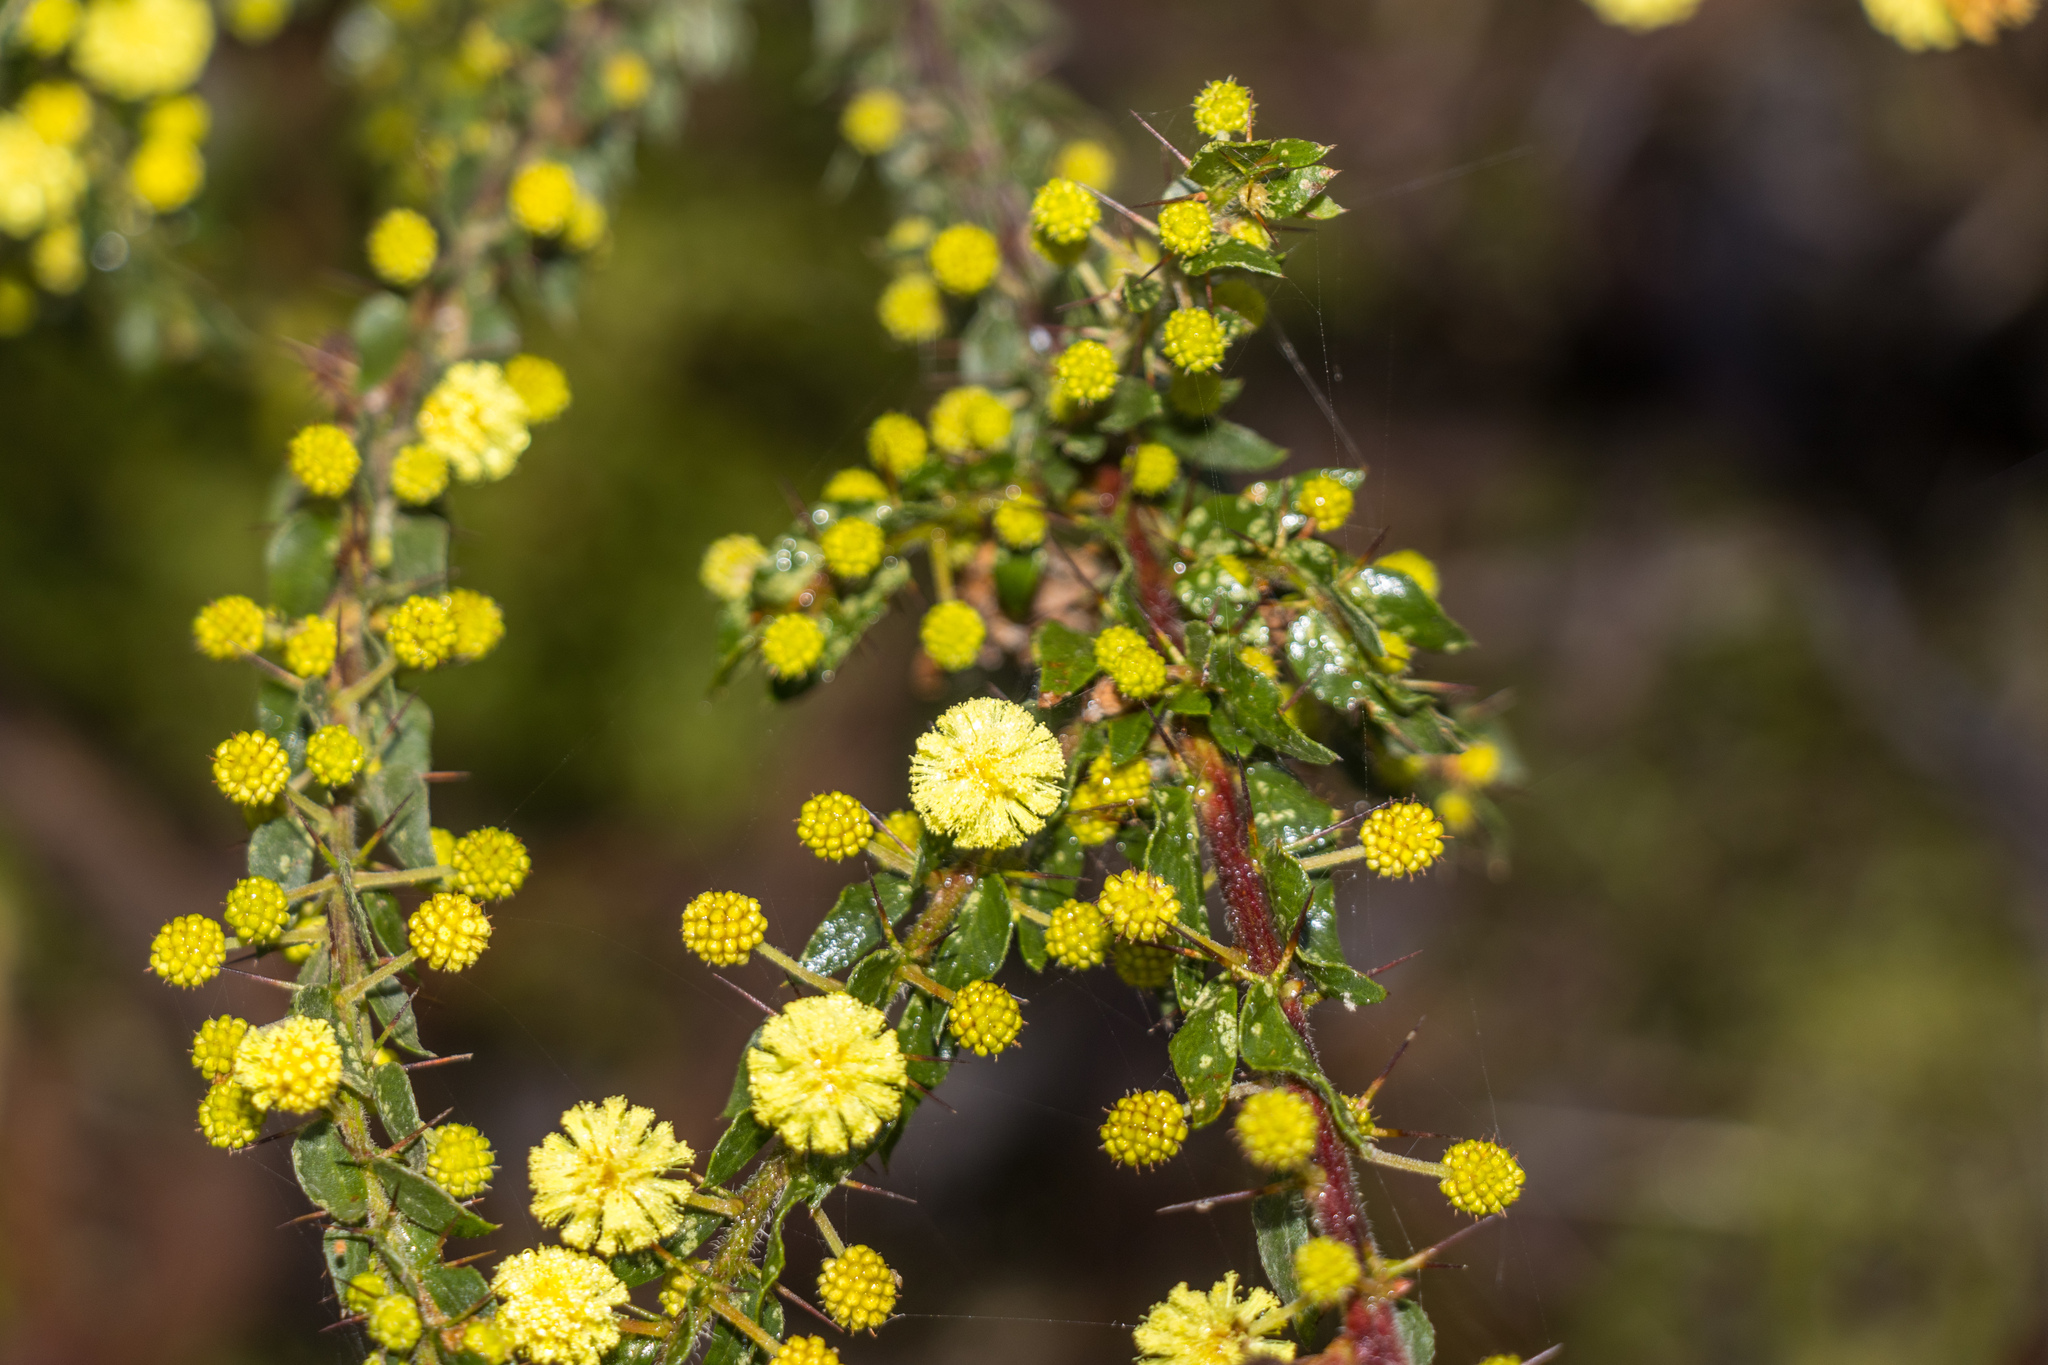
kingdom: Plantae
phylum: Tracheophyta
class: Magnoliopsida
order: Fabales
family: Fabaceae
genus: Acacia
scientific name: Acacia paradoxa
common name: Paradox acacia
